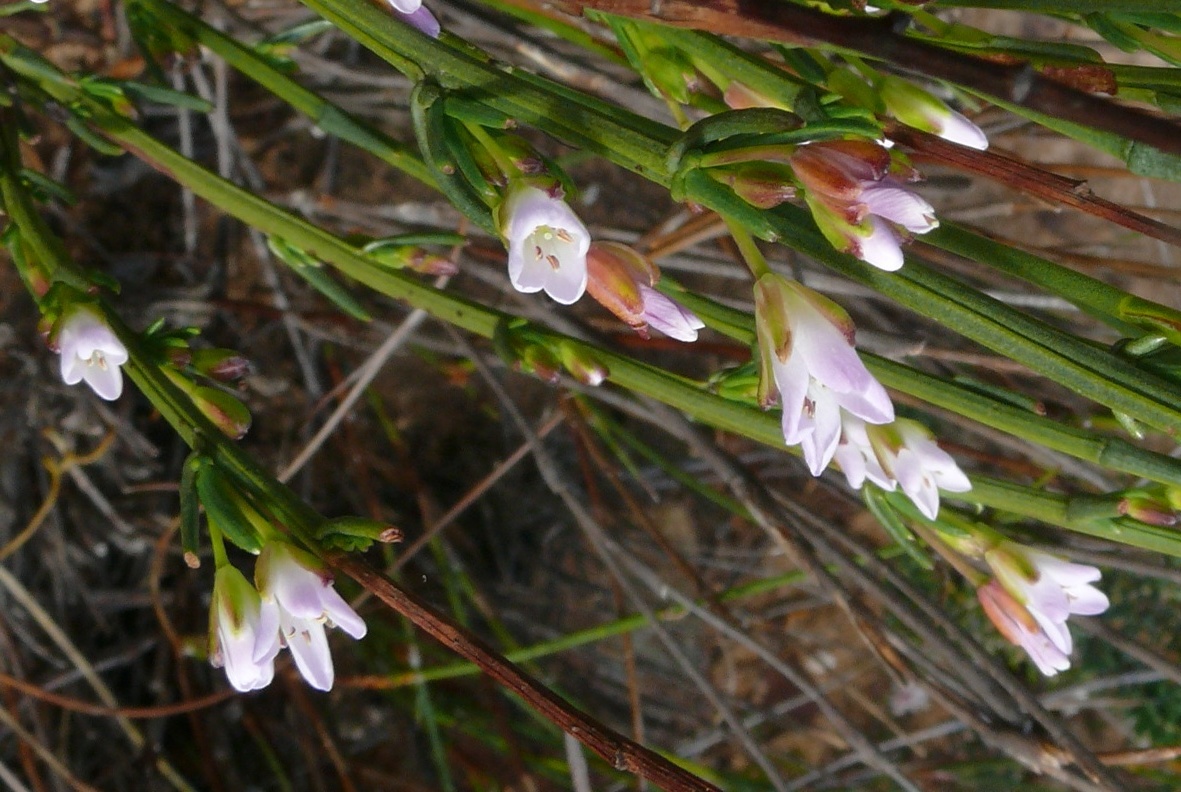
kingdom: Plantae
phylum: Tracheophyta
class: Magnoliopsida
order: Brassicales
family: Brassicaceae
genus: Heliophila
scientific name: Heliophila scoparia
